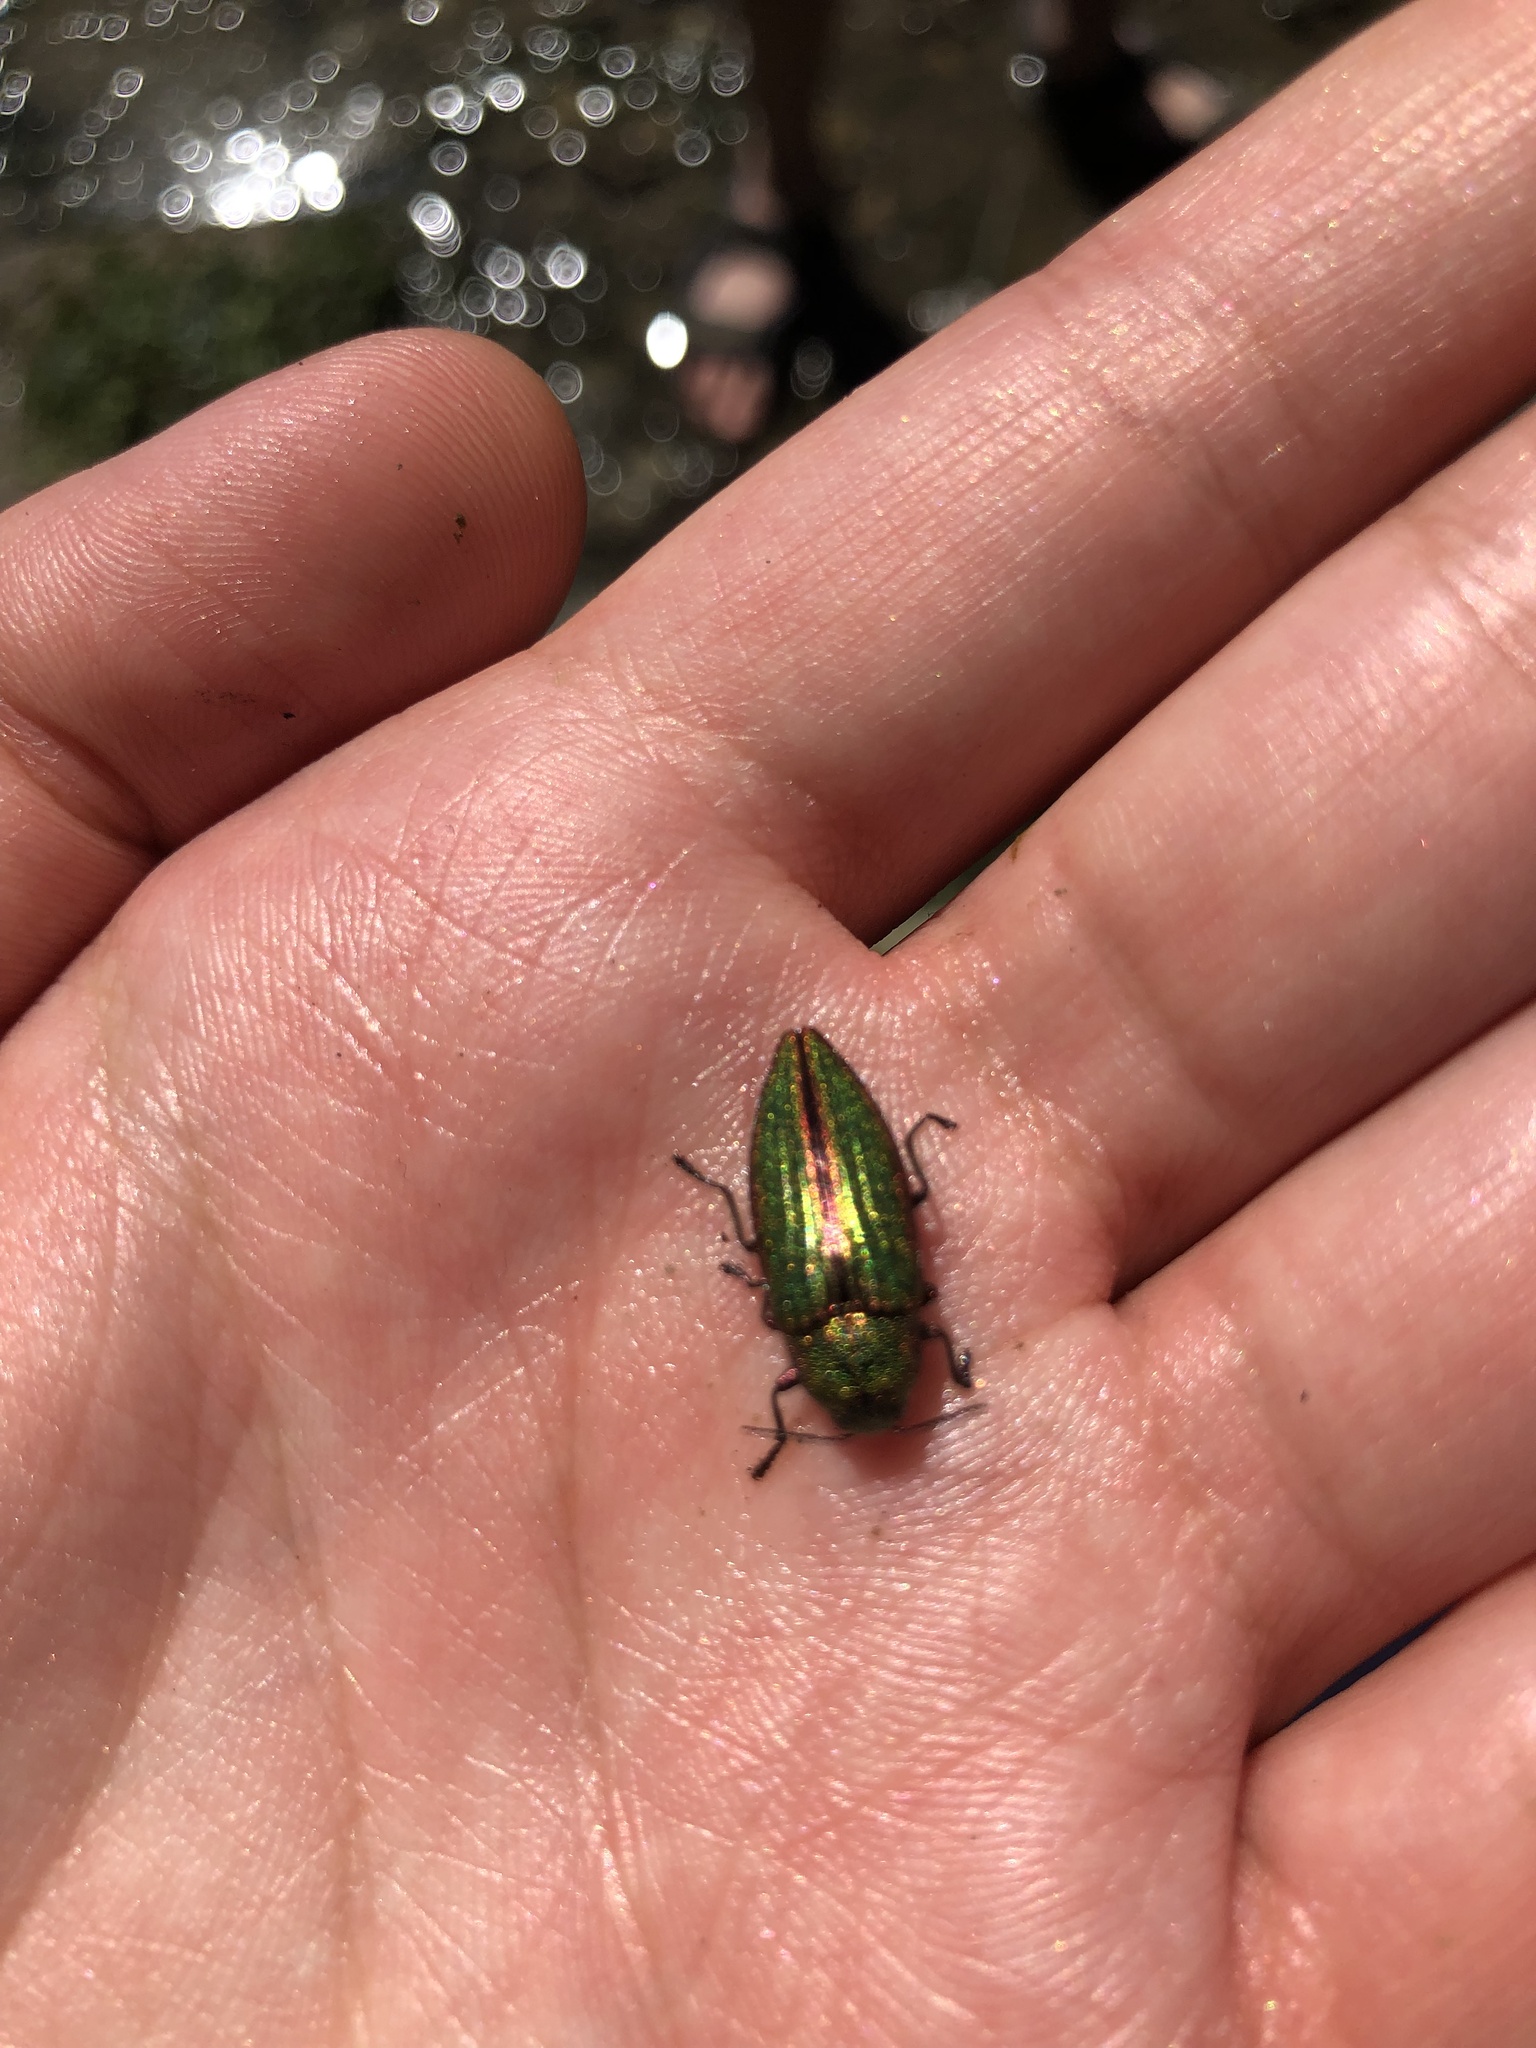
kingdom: Animalia
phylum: Arthropoda
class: Insecta
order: Coleoptera
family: Buprestidae
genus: Buprestis
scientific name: Buprestis aurulenta
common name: Golden buprestid
